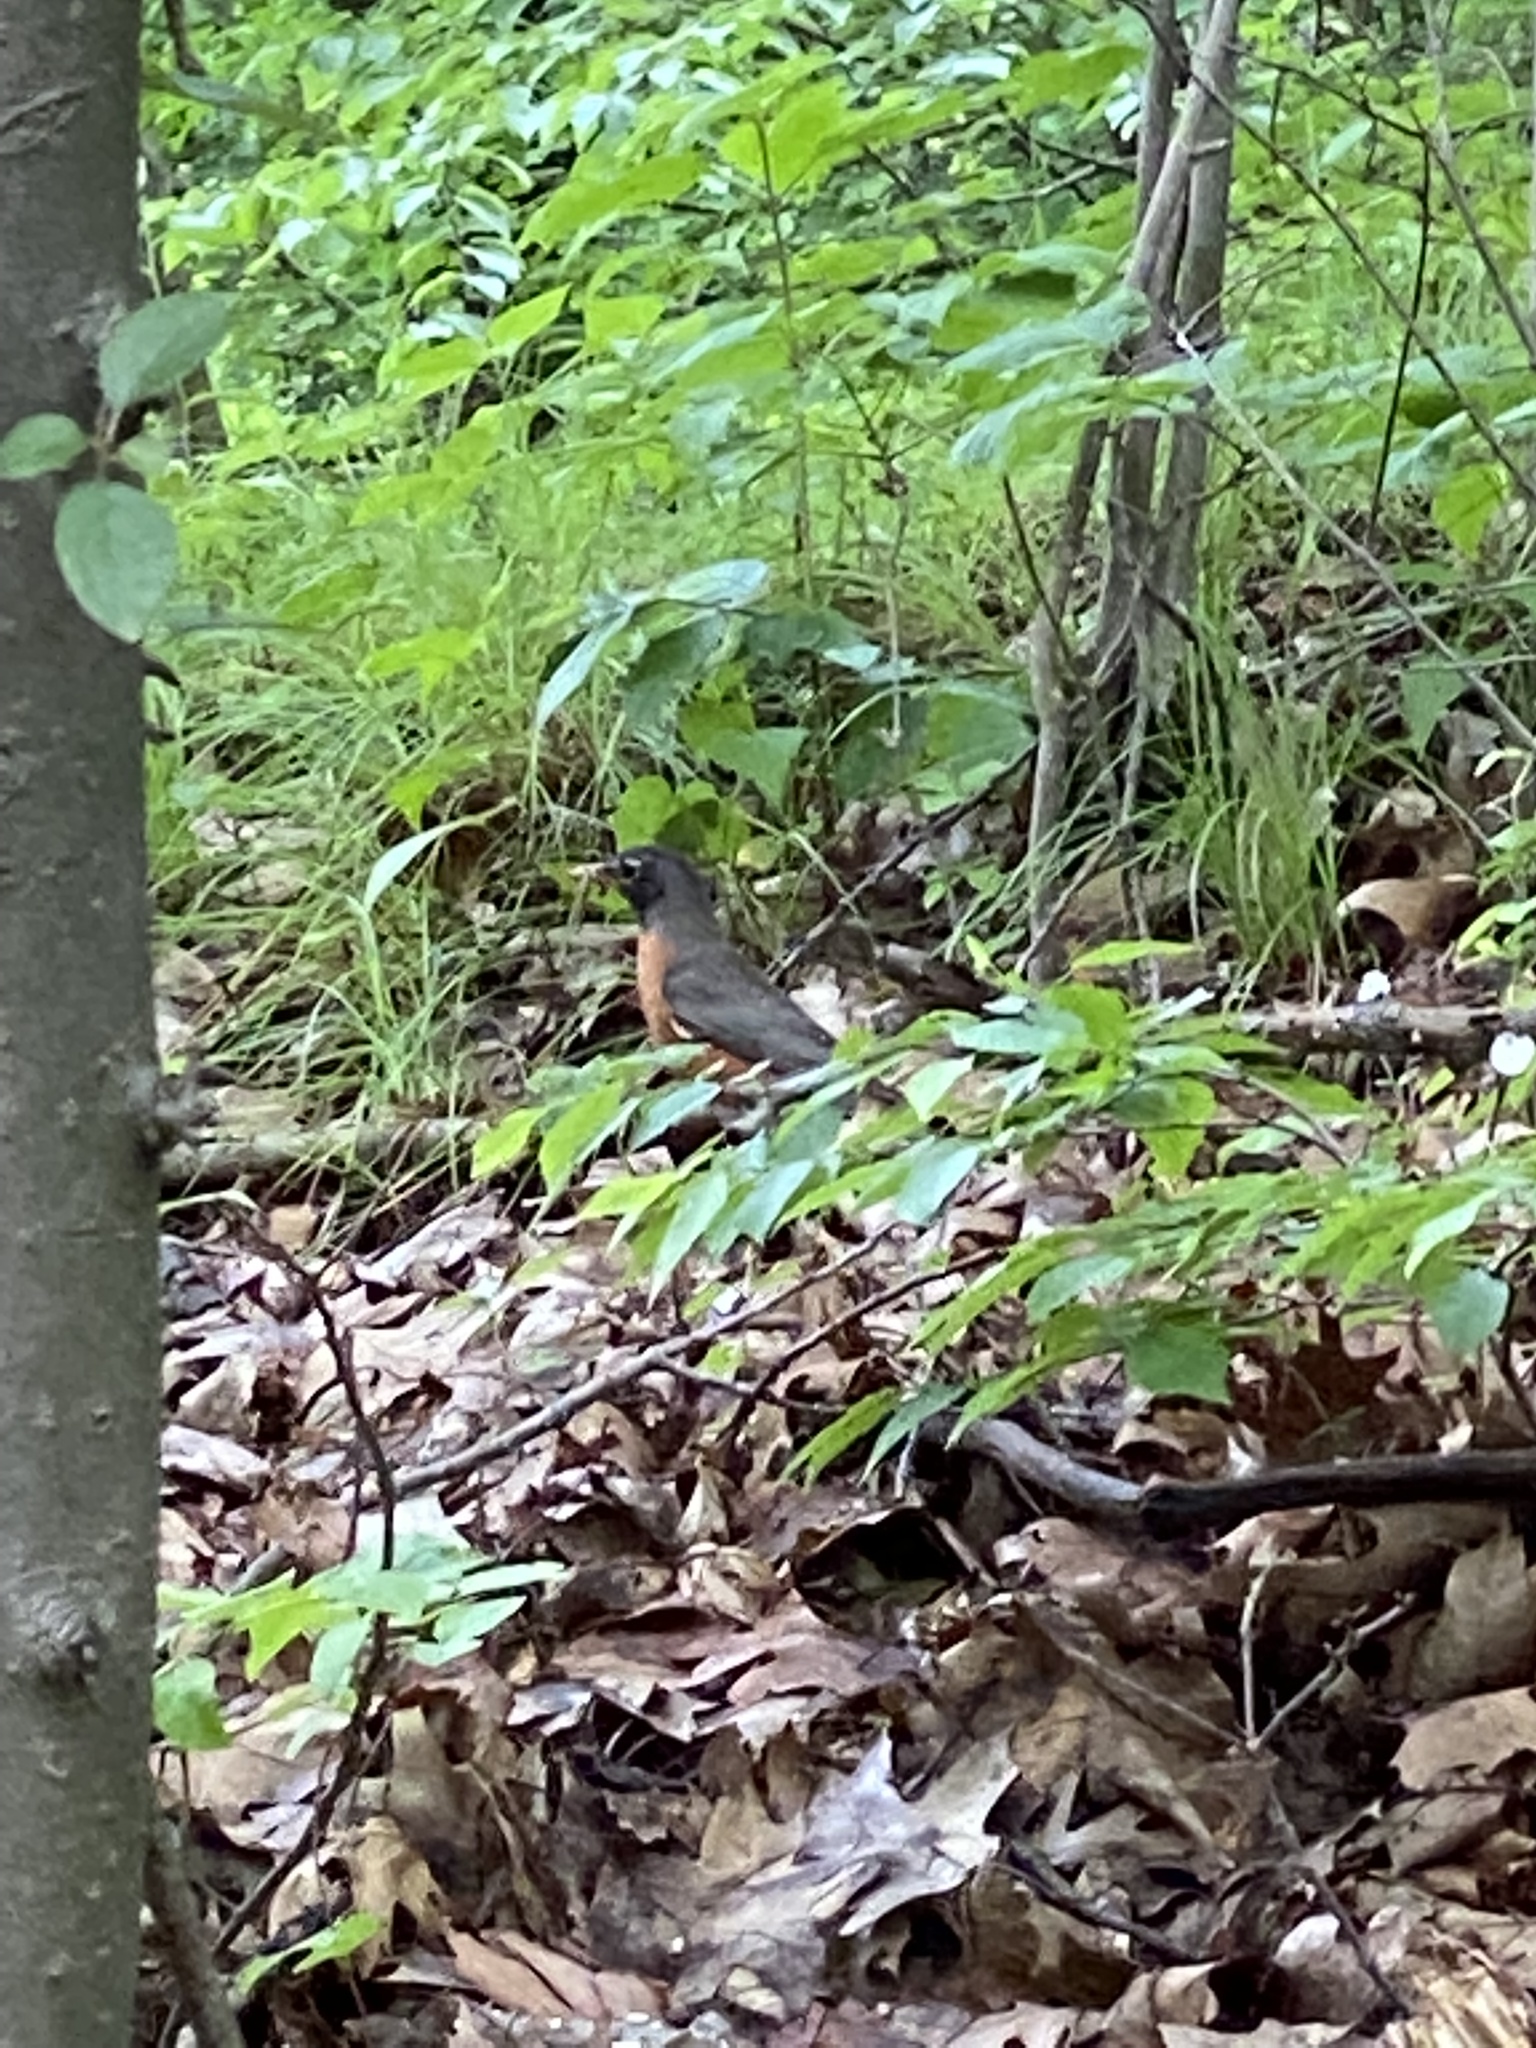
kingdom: Animalia
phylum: Chordata
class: Aves
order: Passeriformes
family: Turdidae
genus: Turdus
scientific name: Turdus migratorius
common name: American robin
